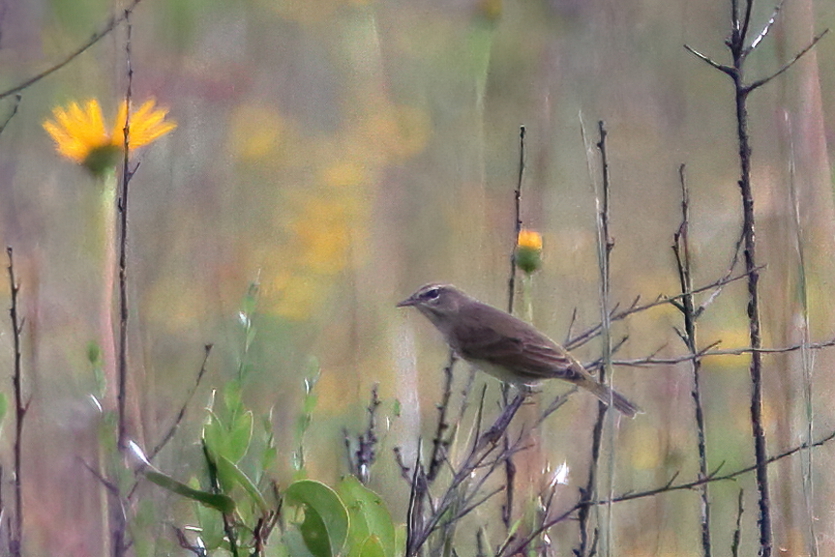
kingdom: Animalia
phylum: Chordata
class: Aves
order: Passeriformes
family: Parulidae
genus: Setophaga
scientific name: Setophaga palmarum
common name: Palm warbler
